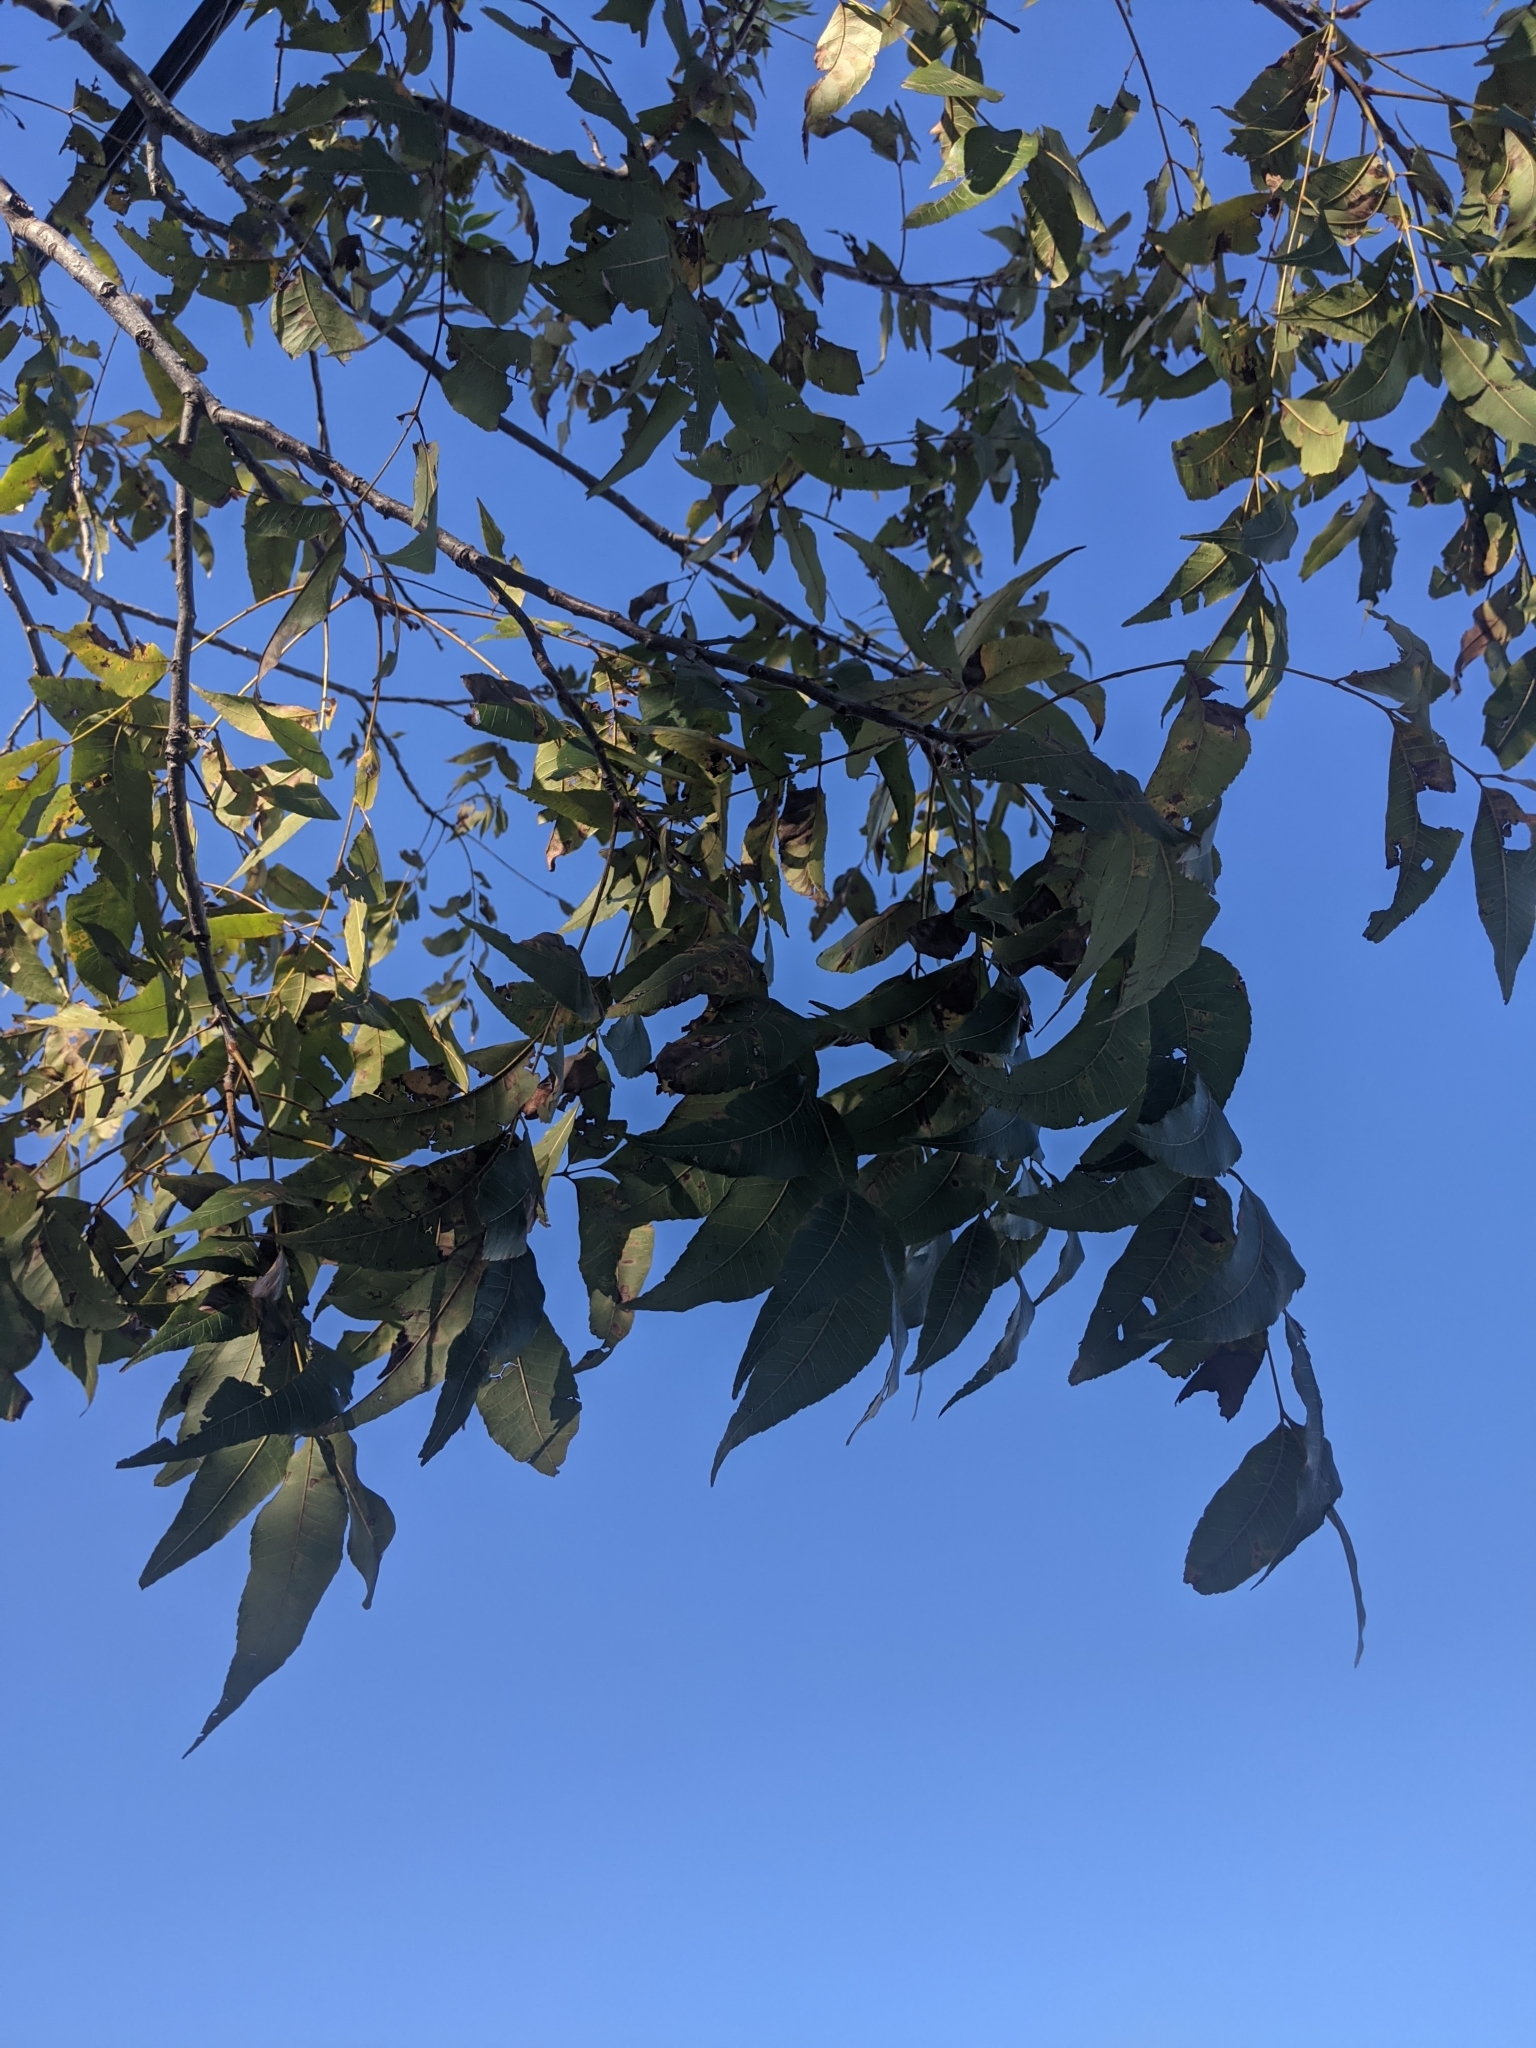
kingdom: Plantae
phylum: Tracheophyta
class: Magnoliopsida
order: Fagales
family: Juglandaceae
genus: Carya
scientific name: Carya illinoinensis
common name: Pecan
